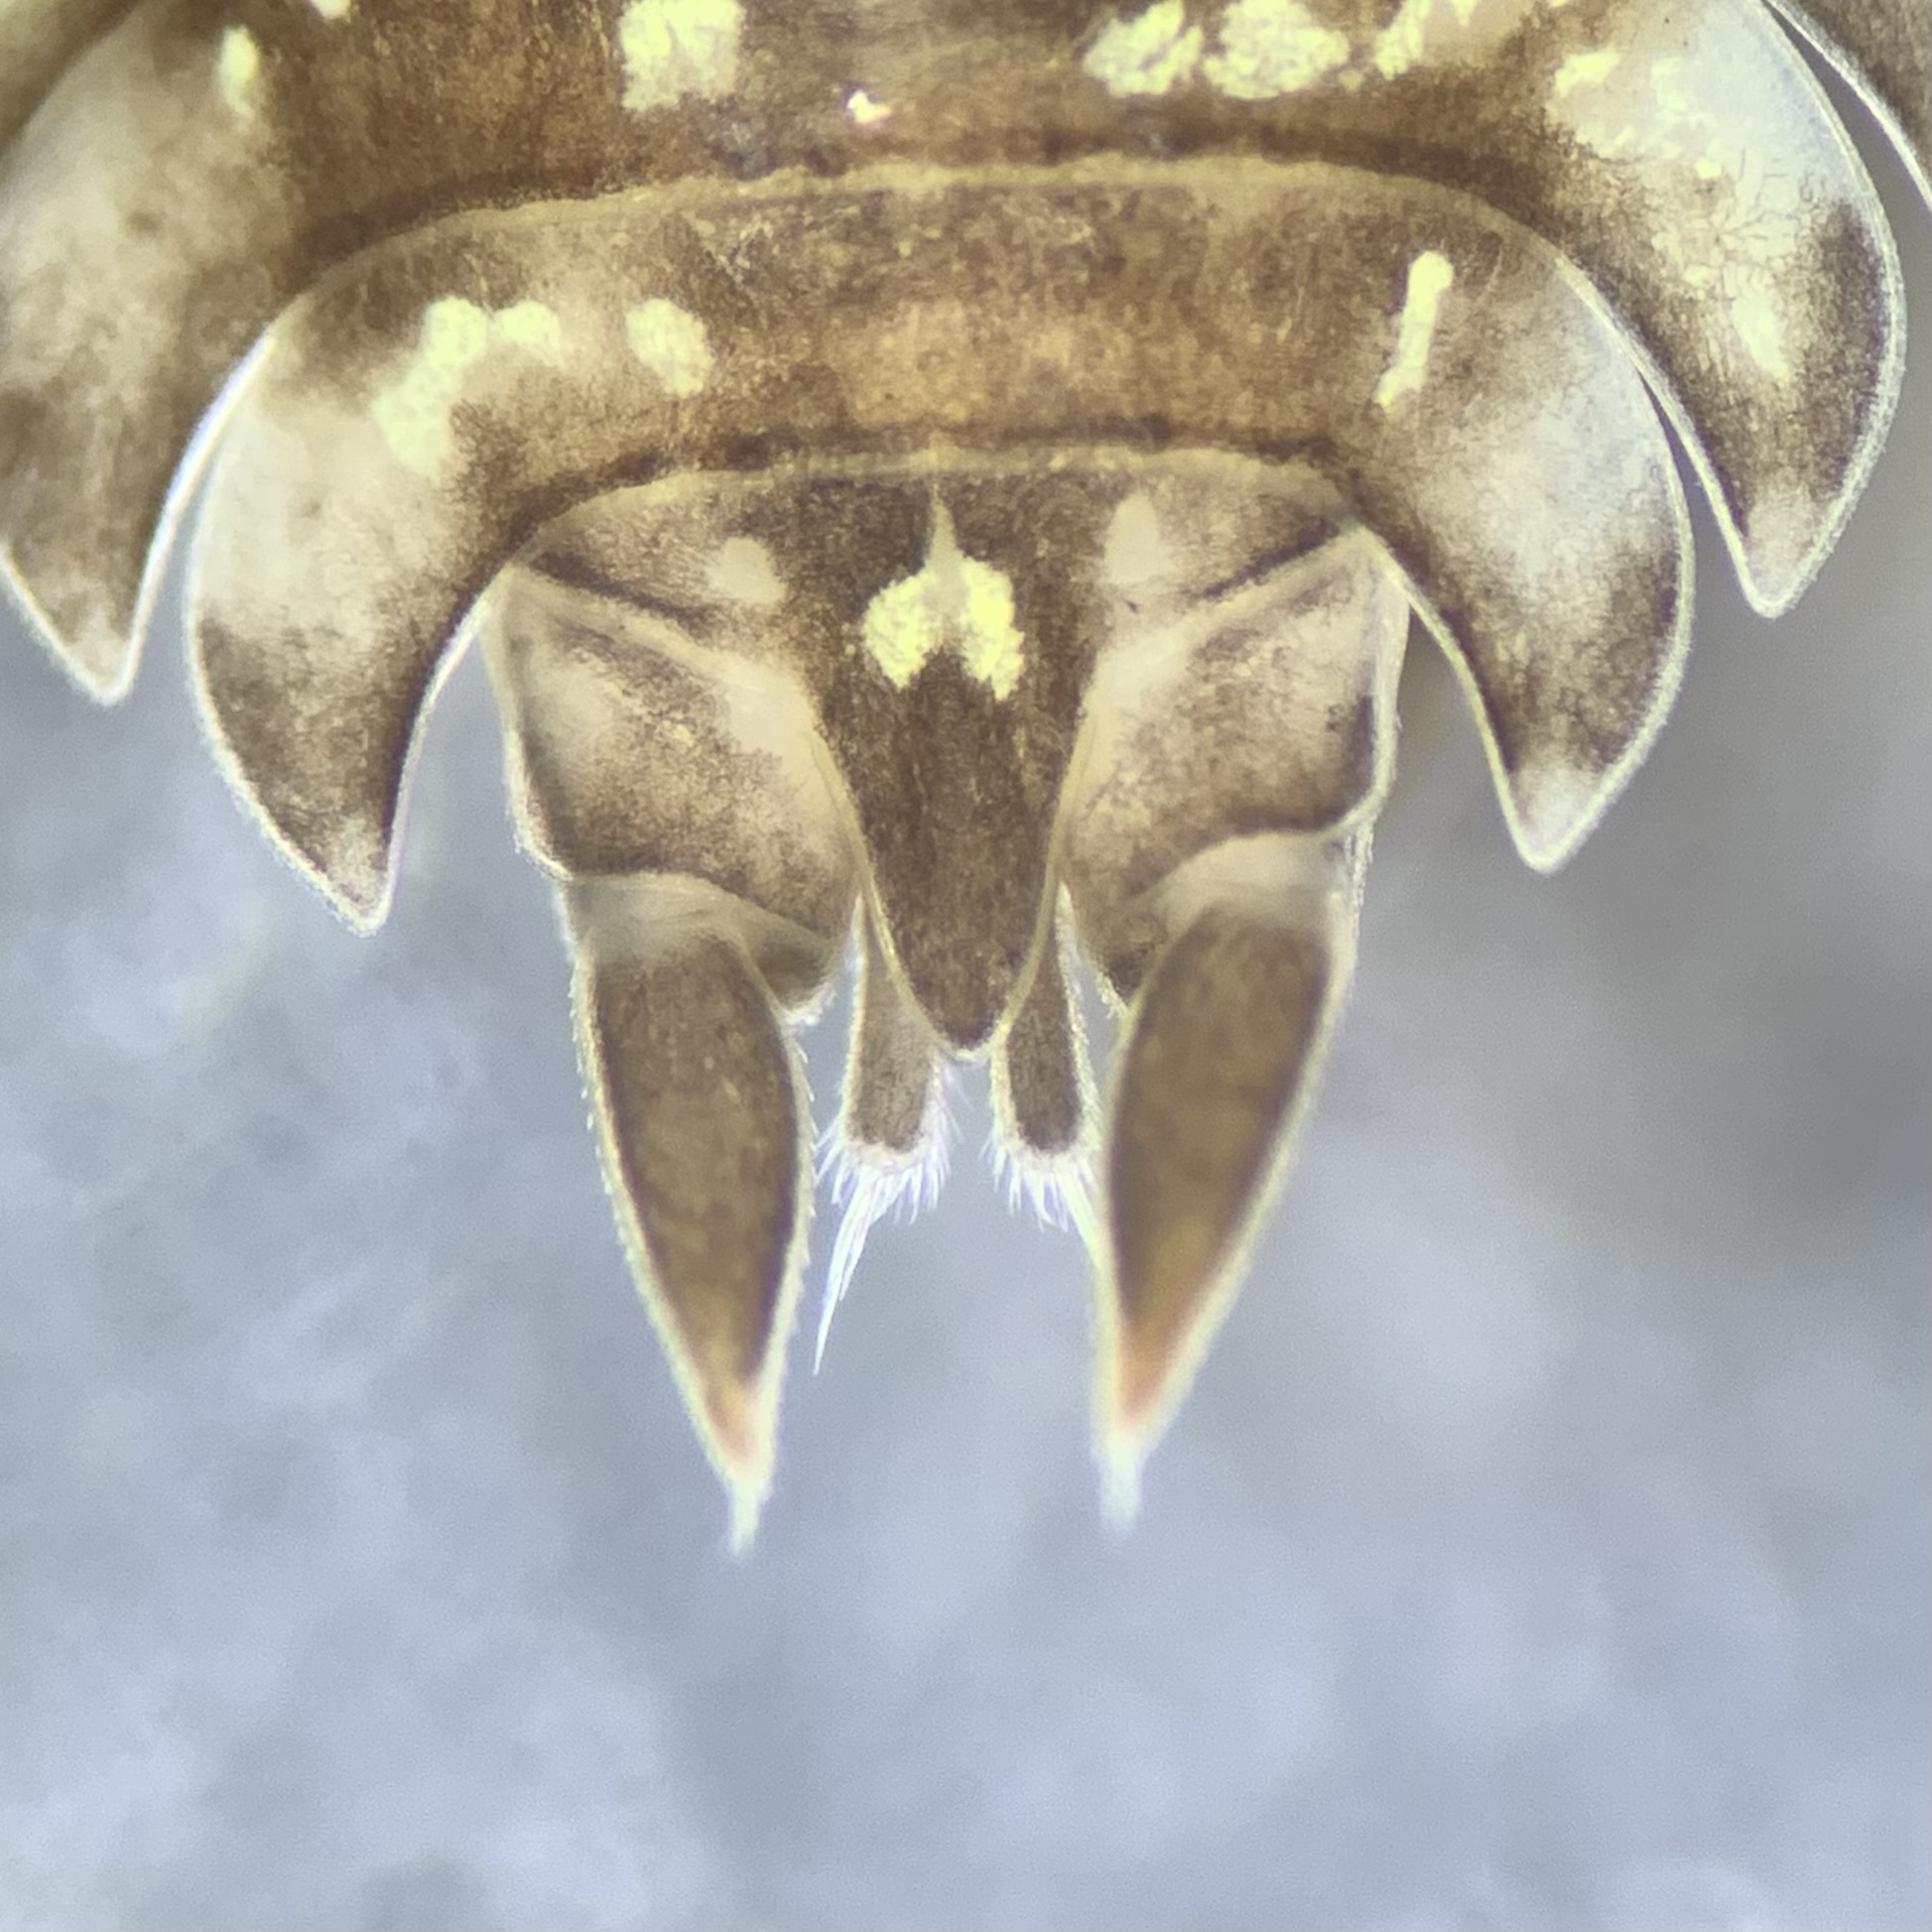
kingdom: Animalia
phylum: Arthropoda
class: Malacostraca
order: Isopoda
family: Porcellionidae
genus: Porcellio
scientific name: Porcellio monticola
